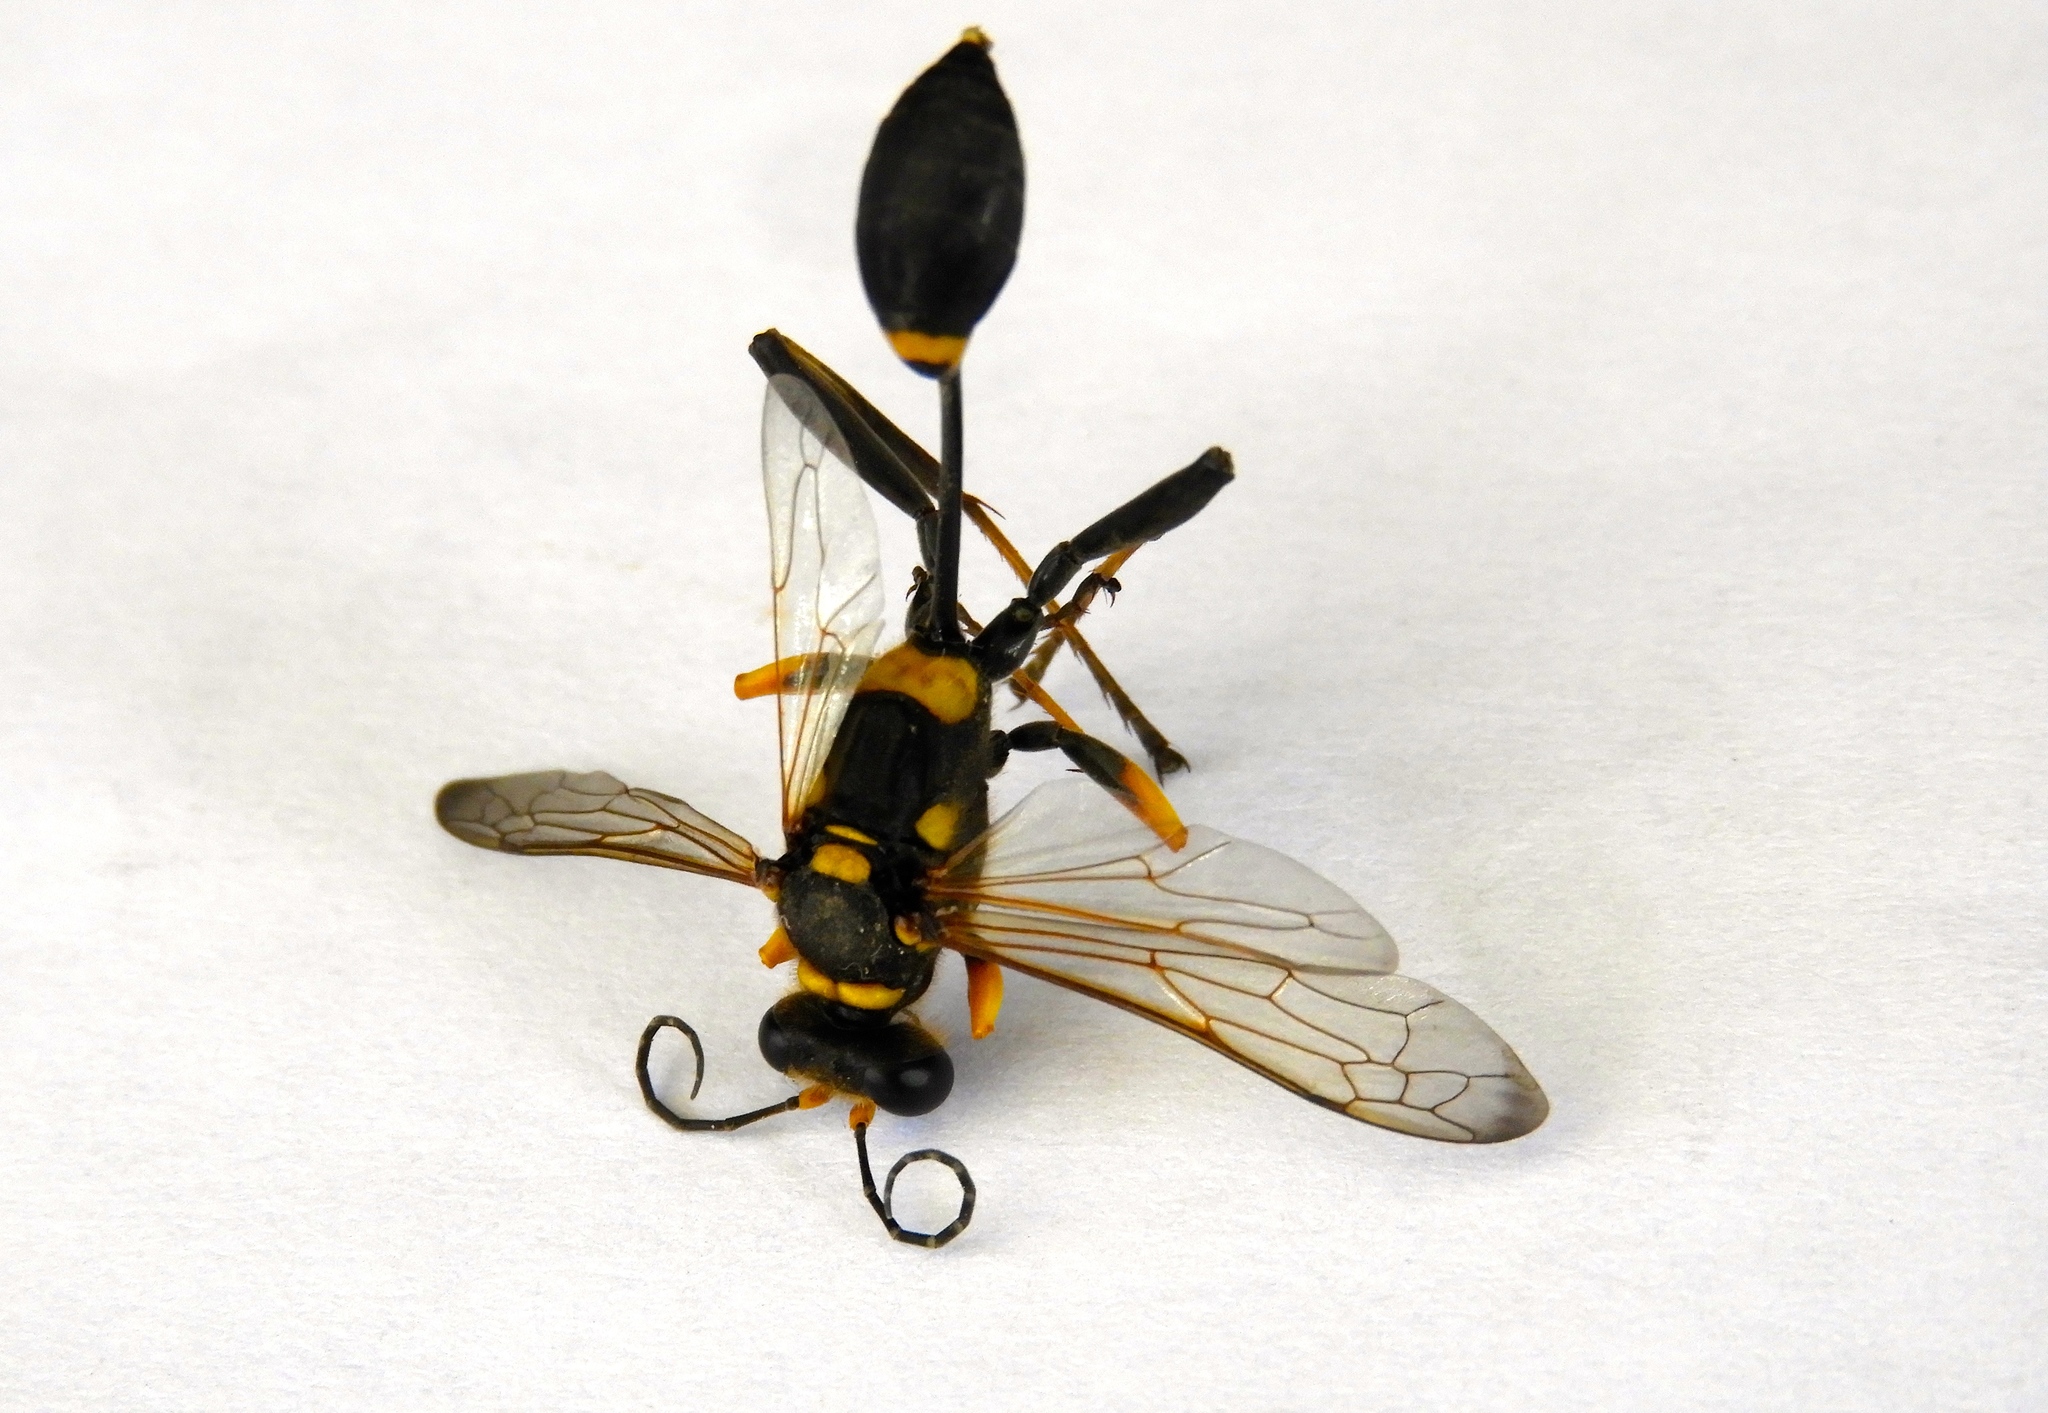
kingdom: Animalia
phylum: Arthropoda
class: Insecta
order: Hymenoptera
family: Sphecidae
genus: Sceliphron
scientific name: Sceliphron caementarium
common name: Mud dauber
